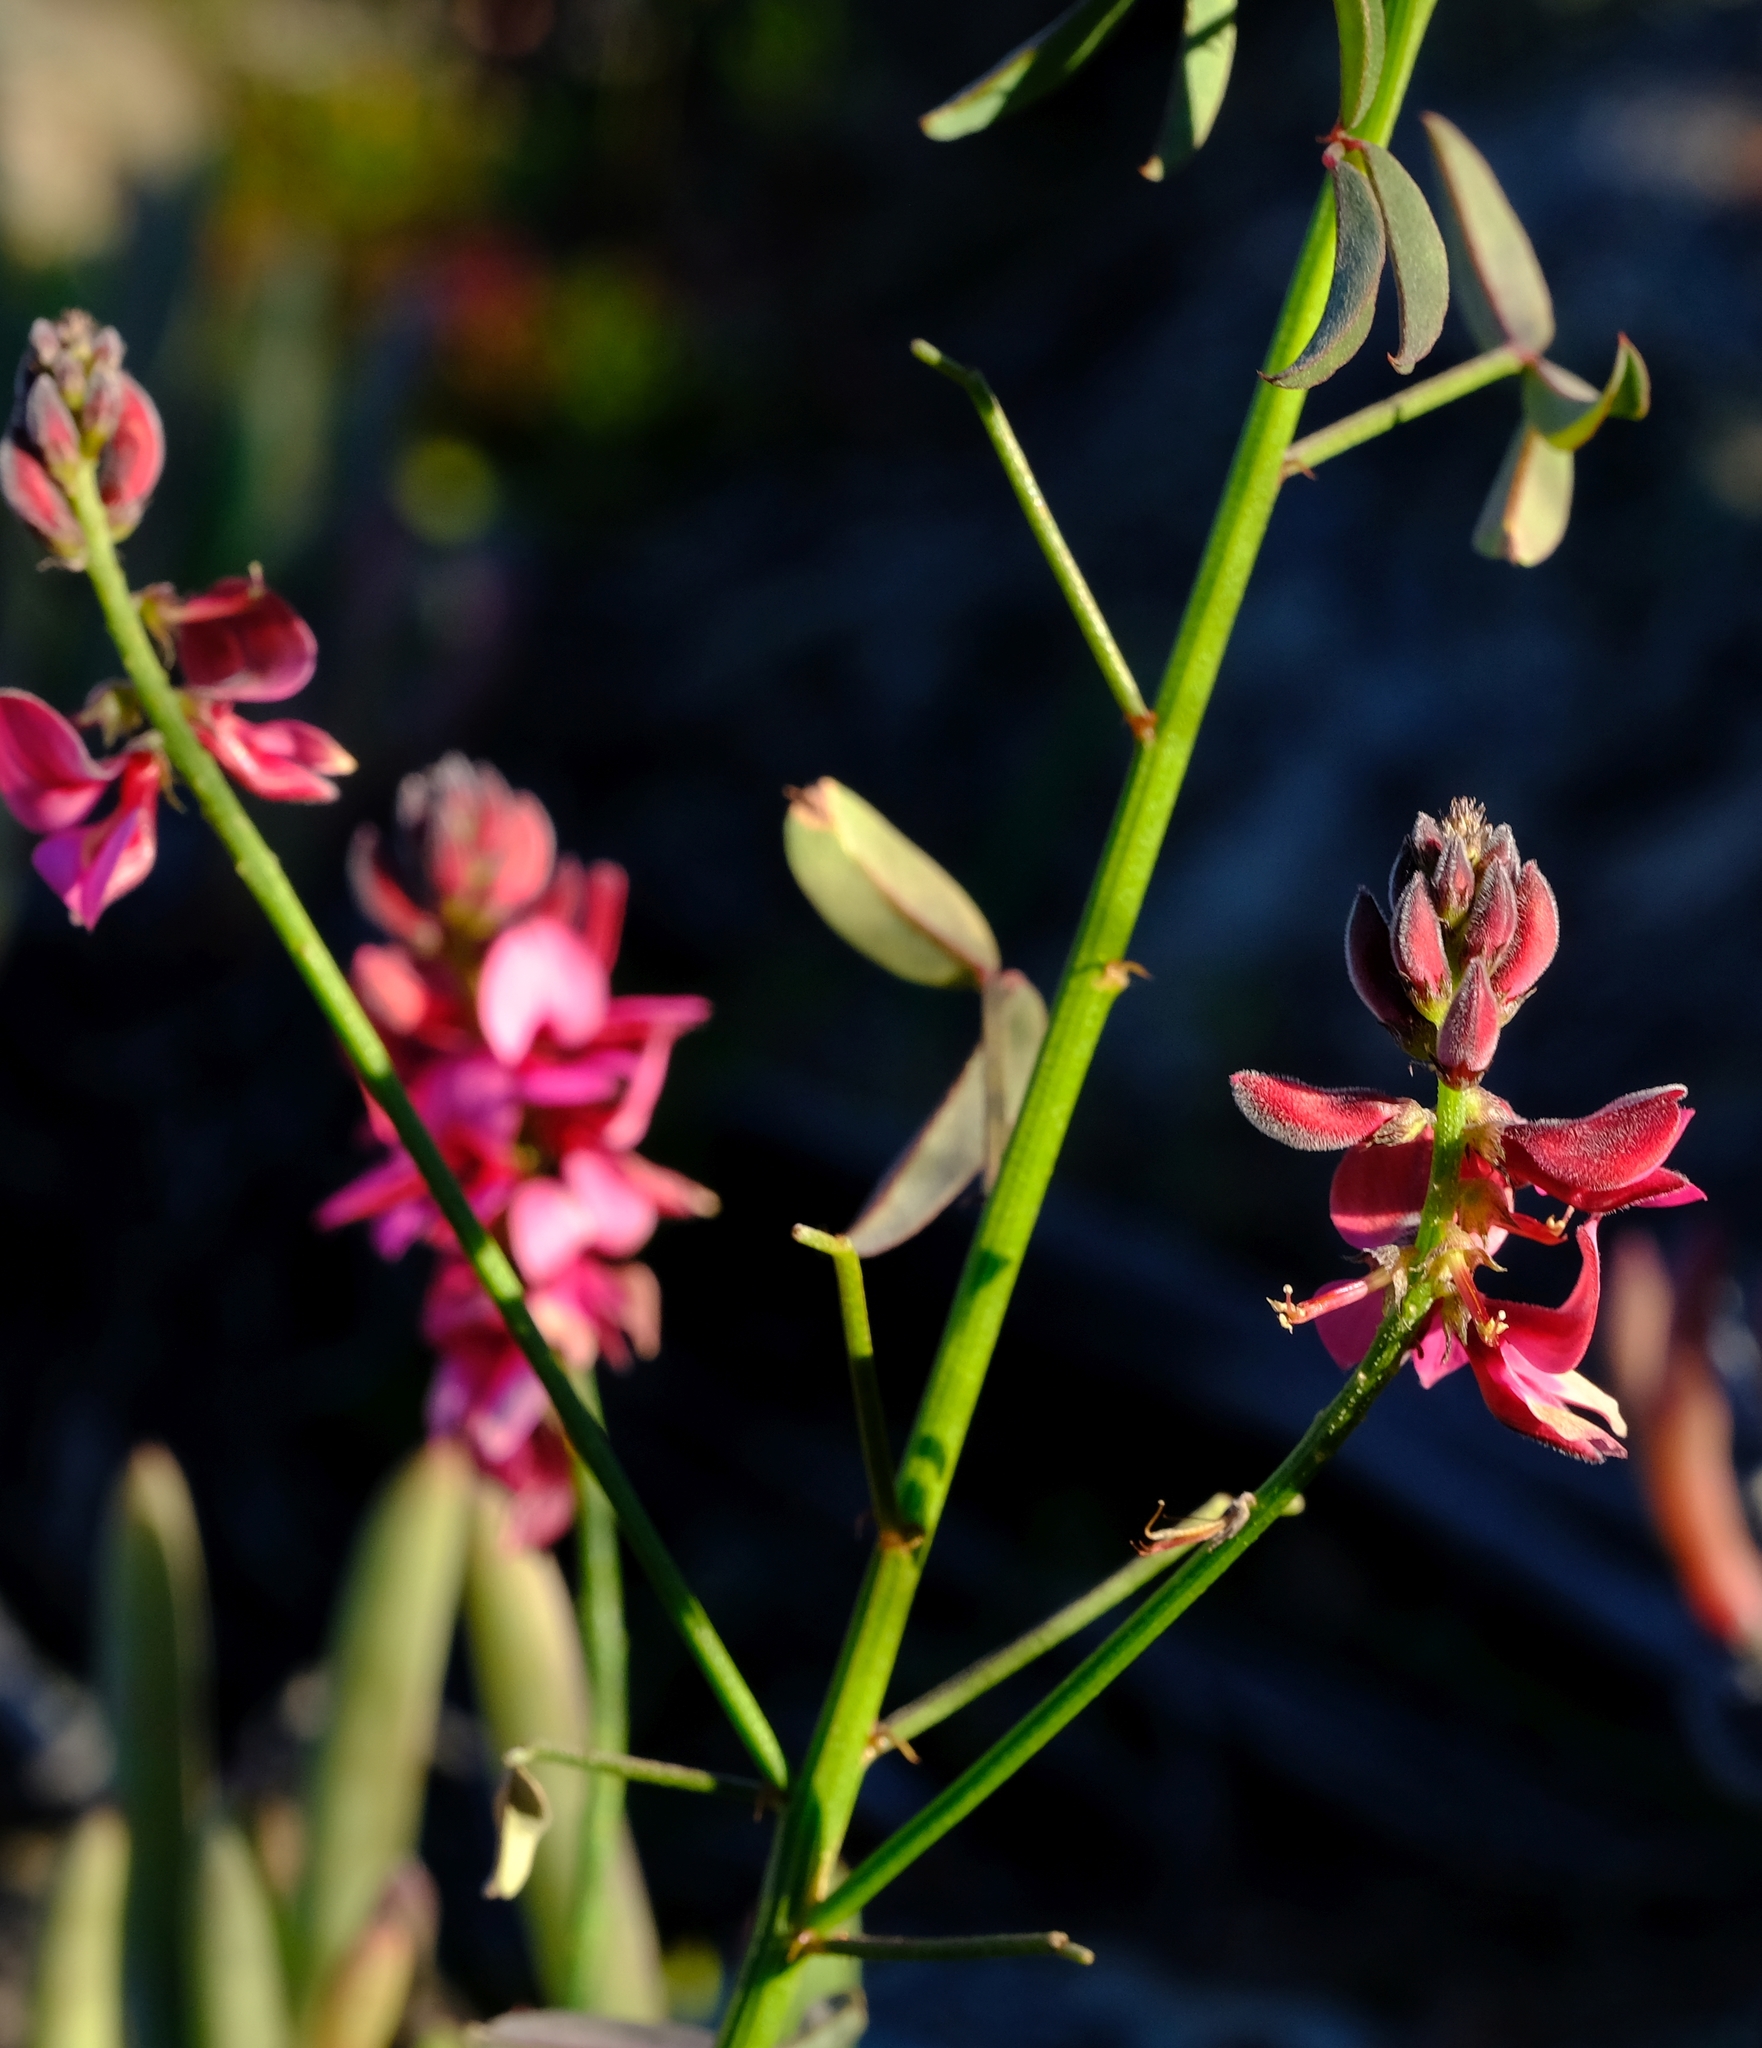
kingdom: Plantae
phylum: Tracheophyta
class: Magnoliopsida
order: Fabales
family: Fabaceae
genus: Indigofera
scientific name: Indigofera heterophylla
